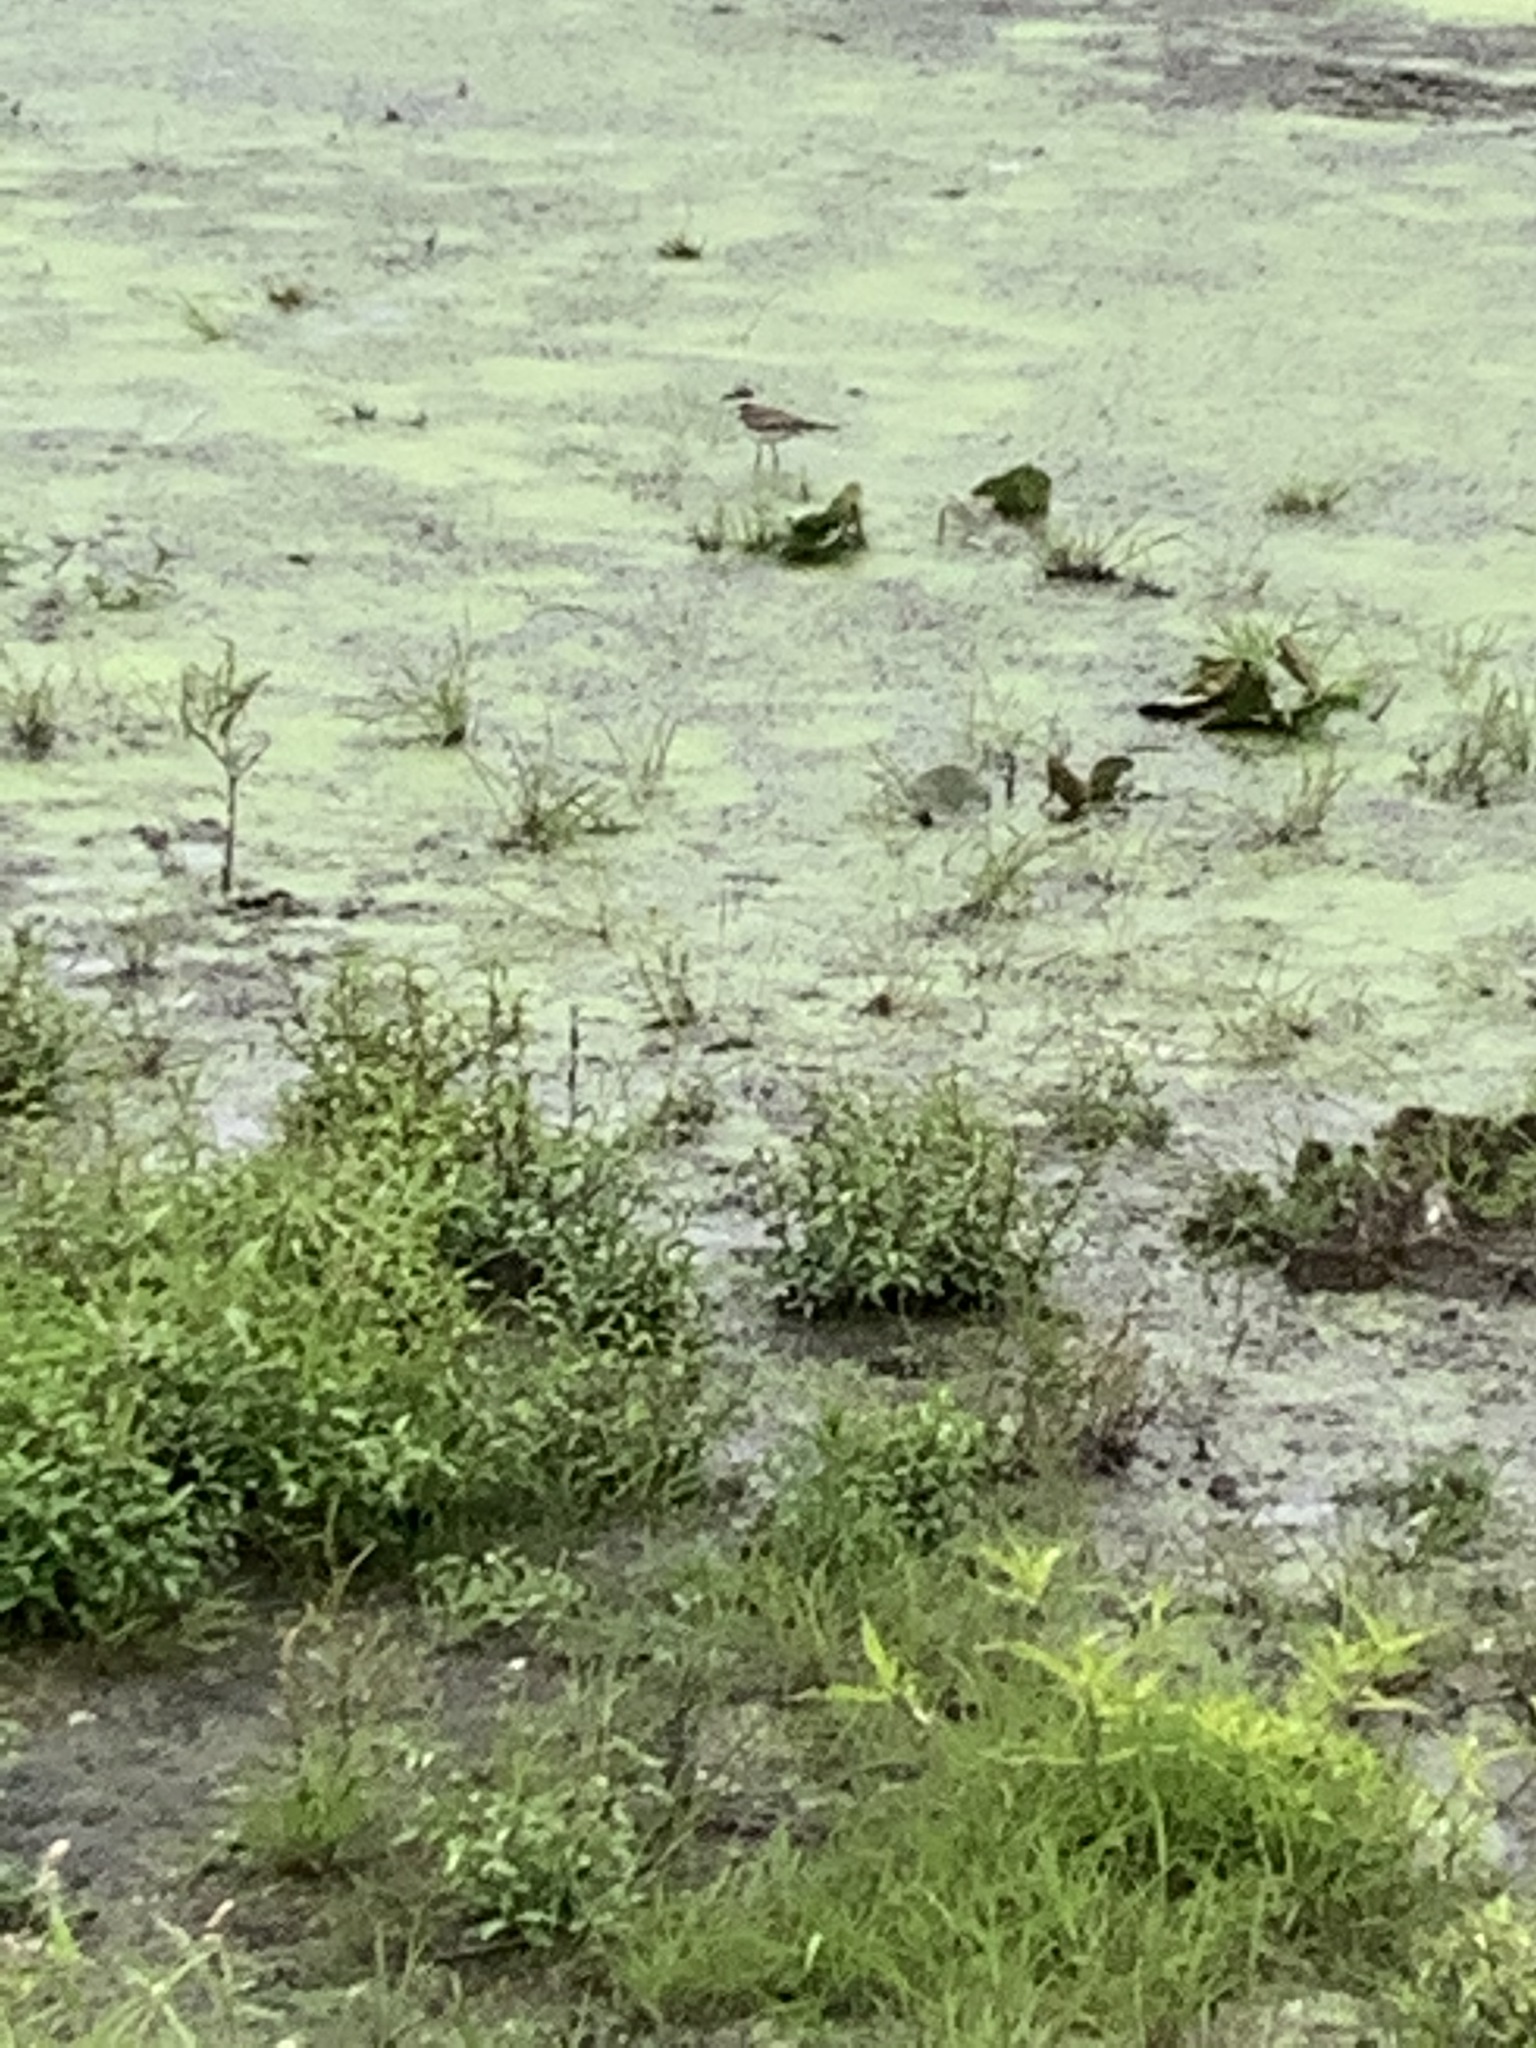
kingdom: Animalia
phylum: Chordata
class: Aves
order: Charadriiformes
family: Charadriidae
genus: Charadrius
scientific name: Charadrius vociferus
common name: Killdeer
